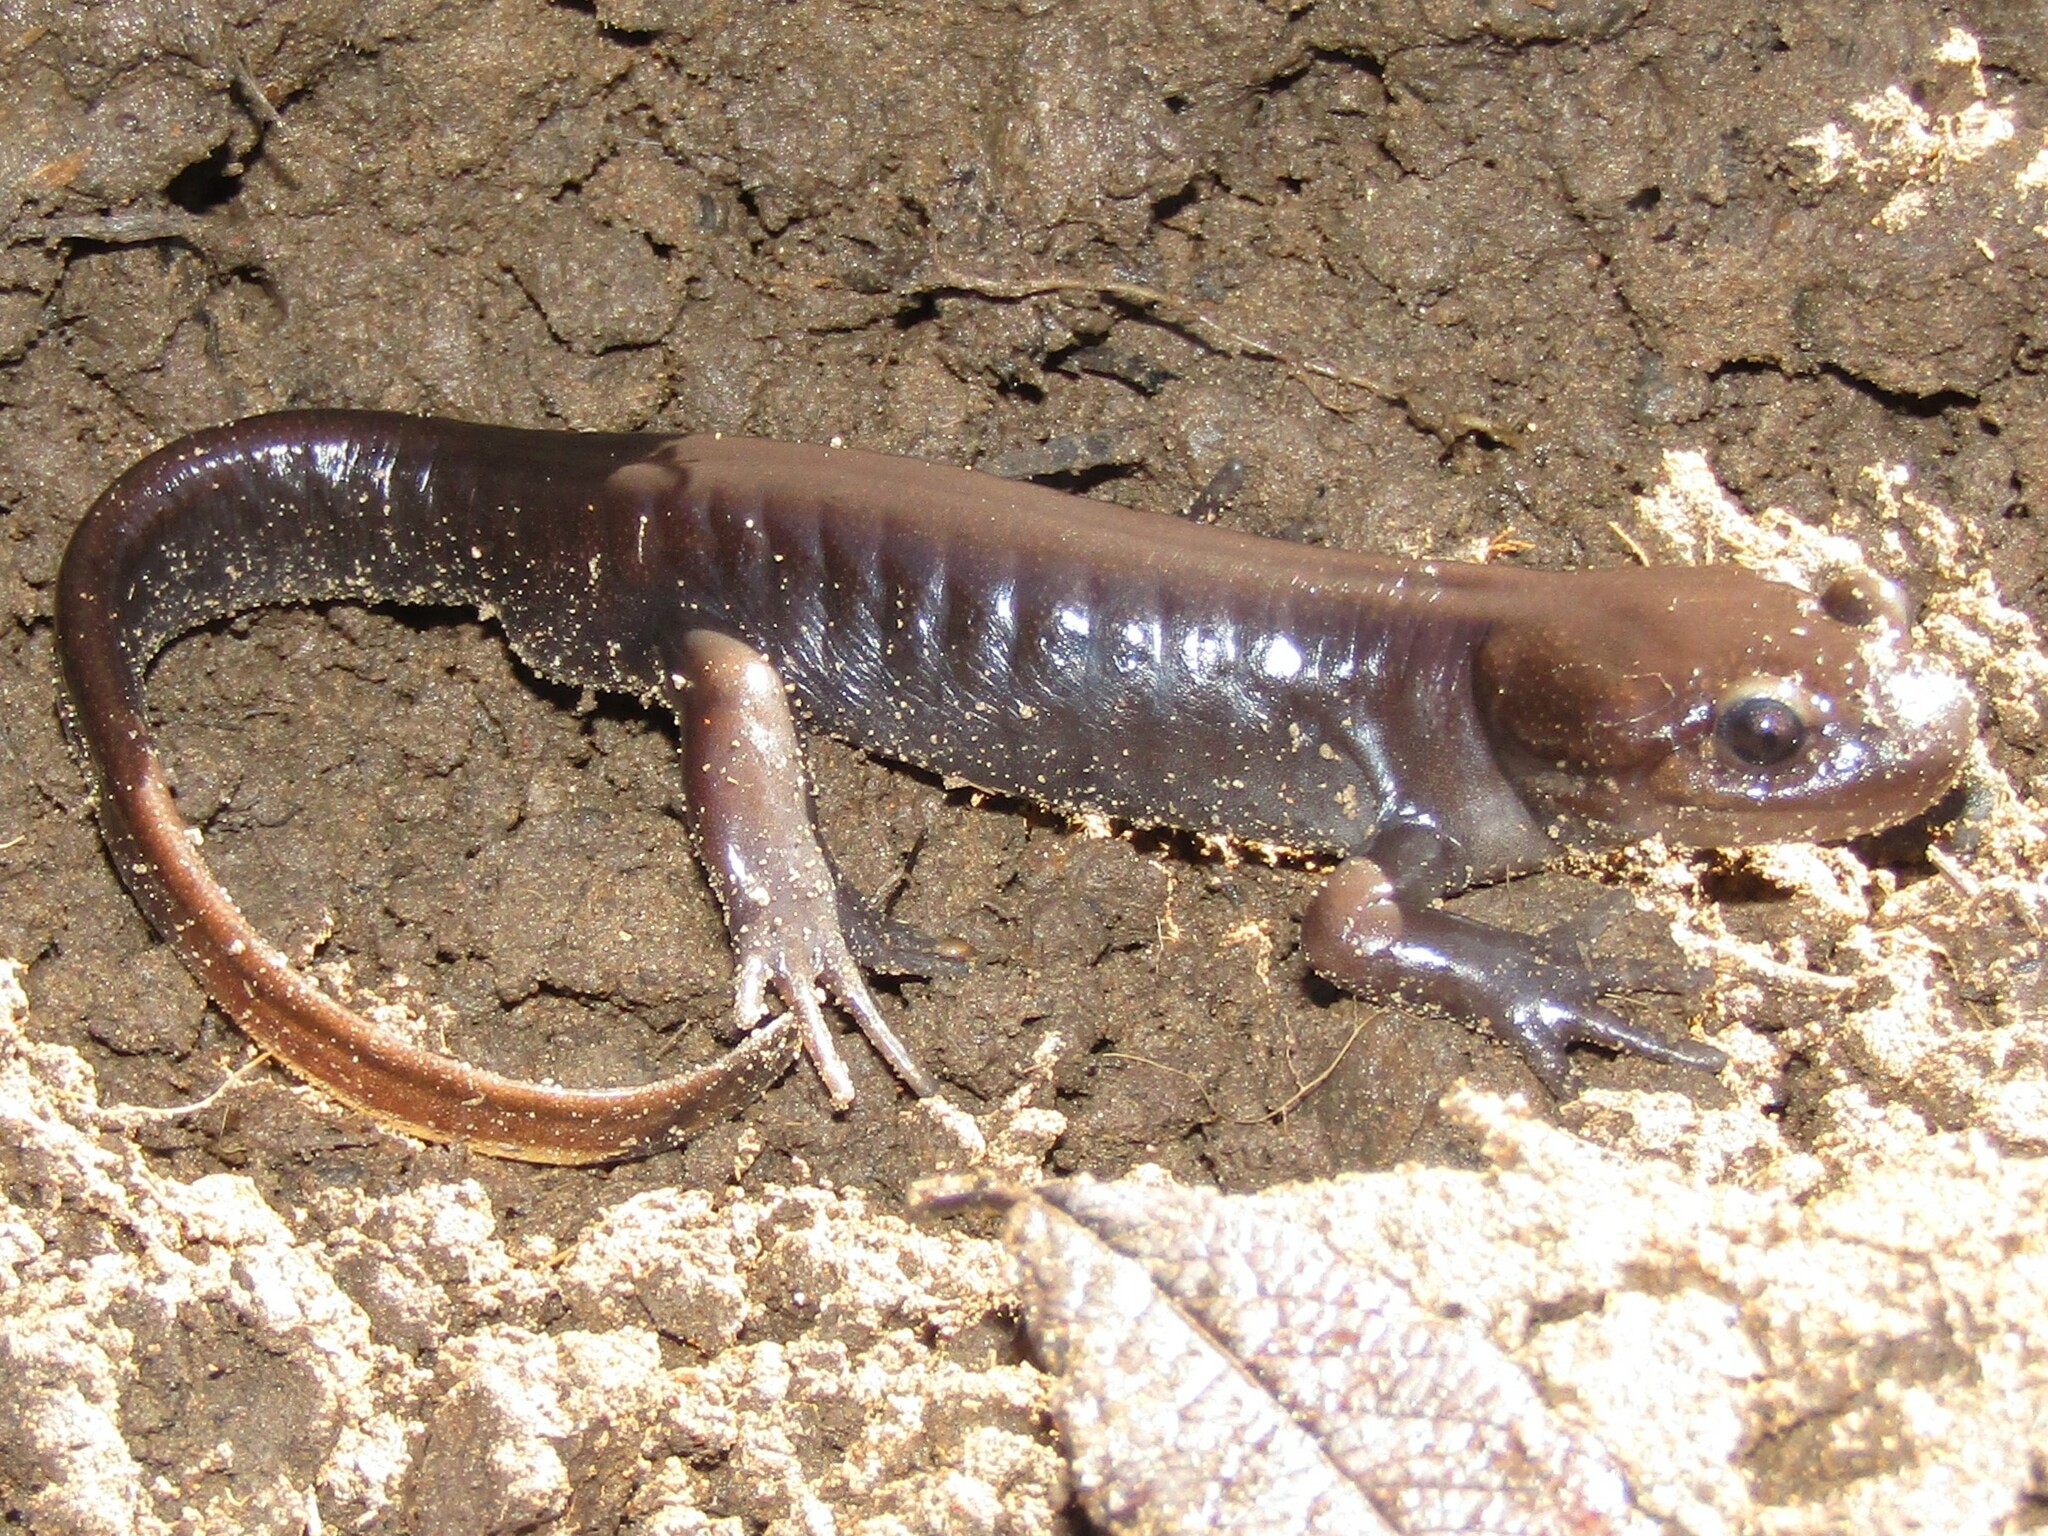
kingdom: Animalia
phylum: Chordata
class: Amphibia
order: Caudata
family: Ambystomatidae
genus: Ambystoma
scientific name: Ambystoma gracile
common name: Northwestern salamander
